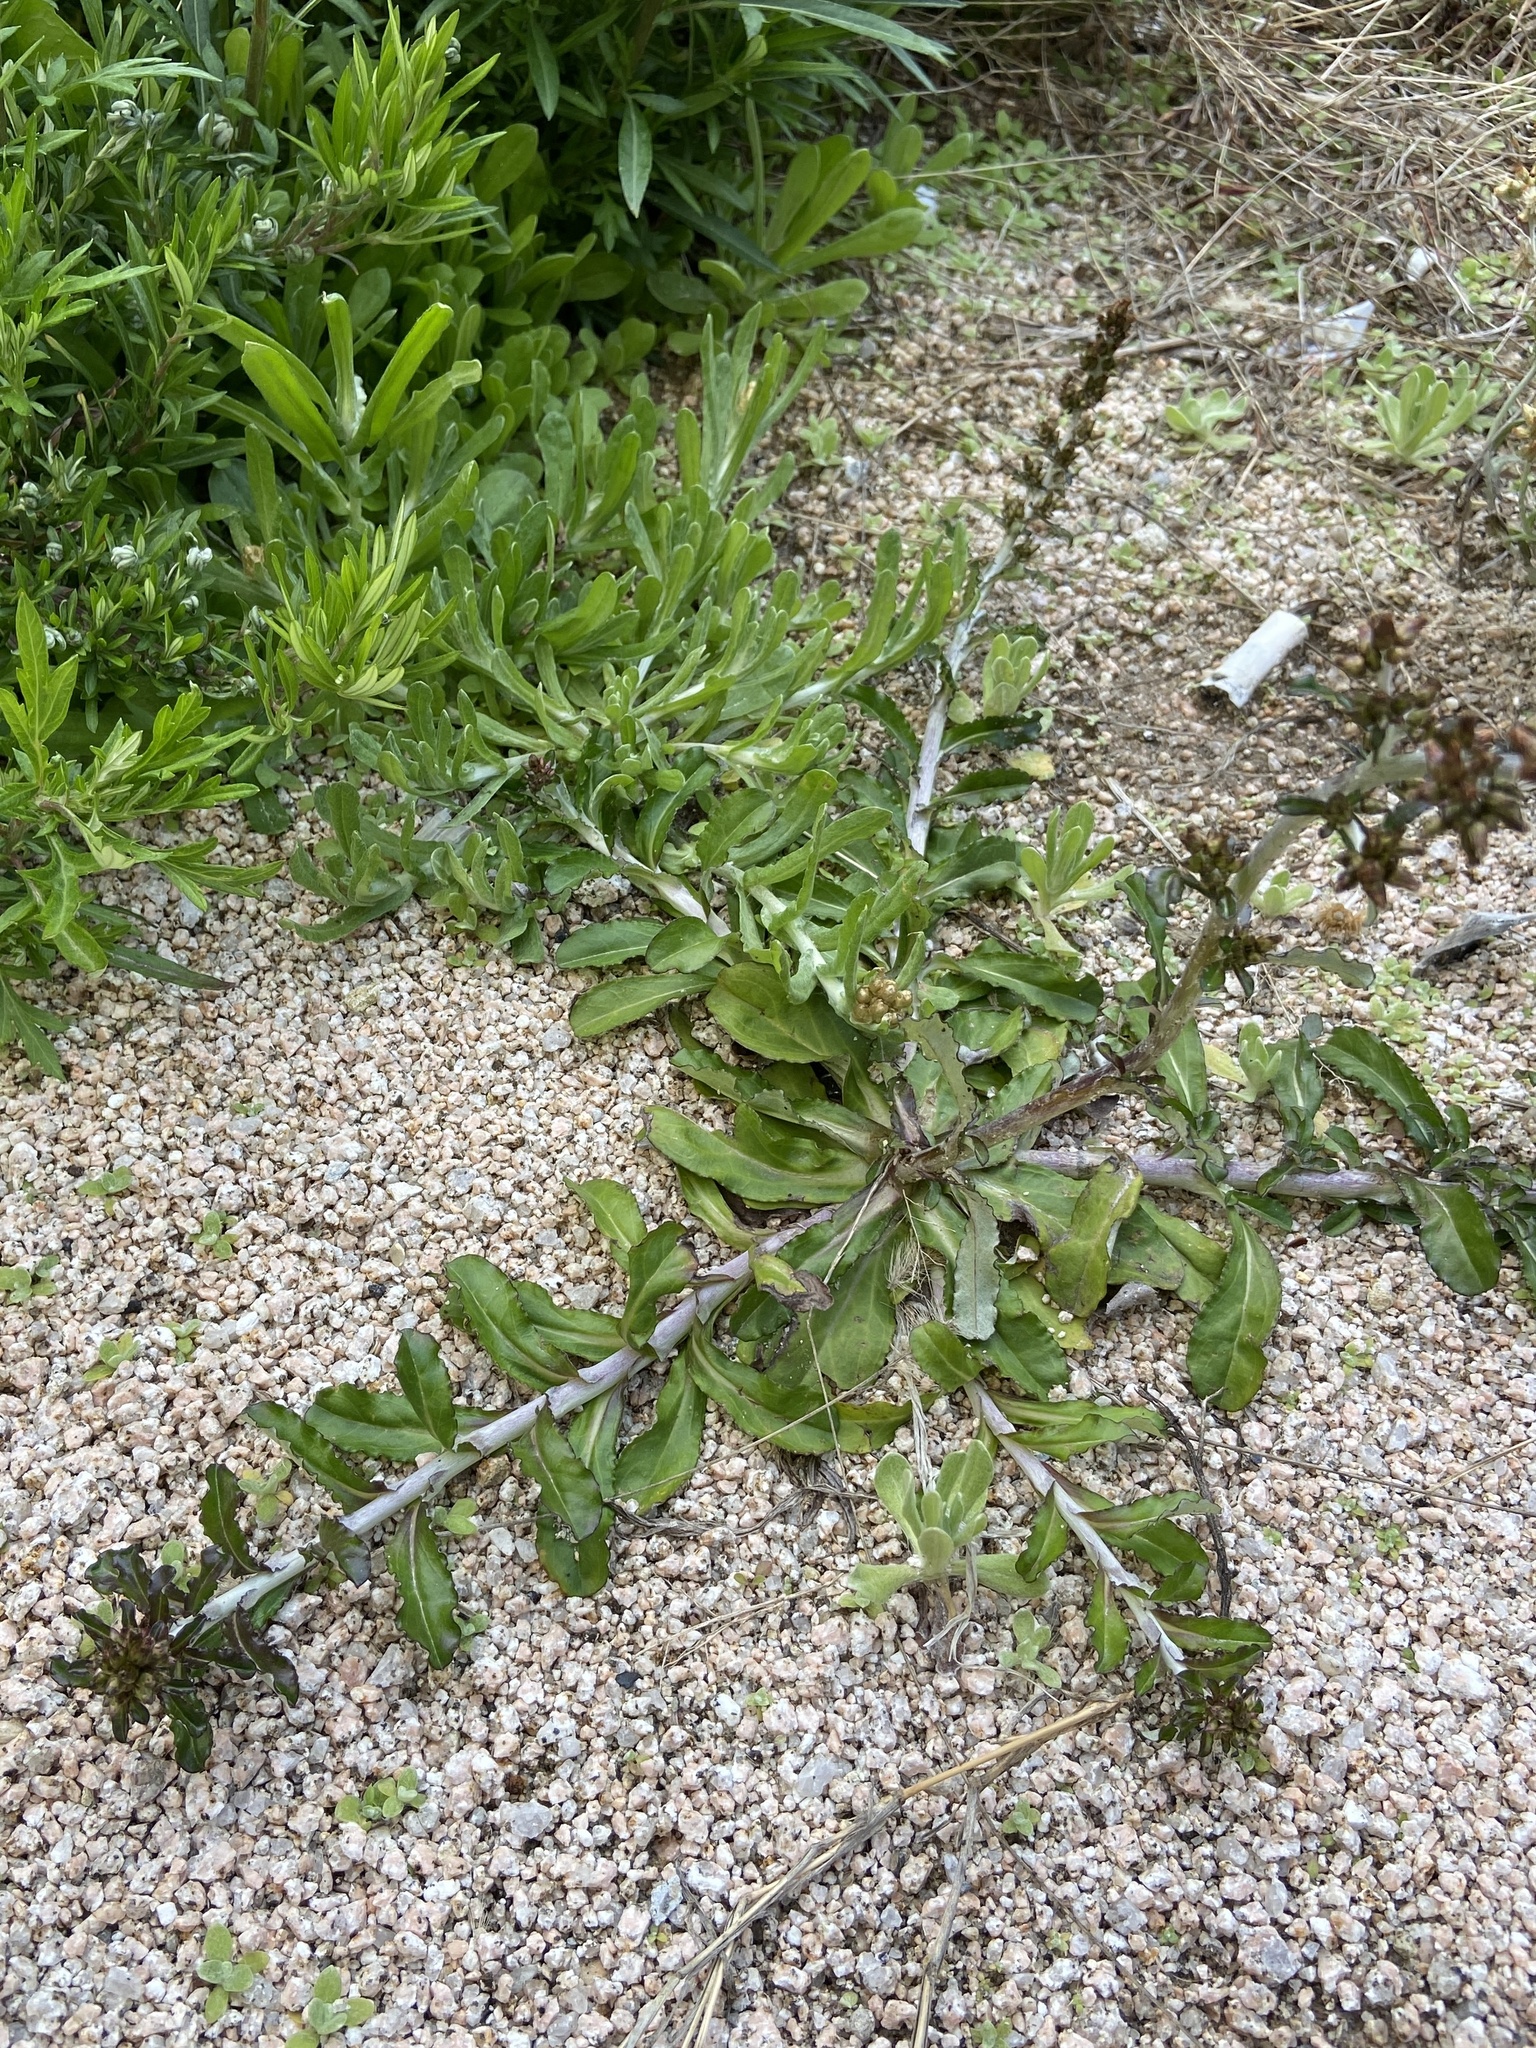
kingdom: Plantae
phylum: Tracheophyta
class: Magnoliopsida
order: Asterales
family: Asteraceae
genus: Gamochaeta
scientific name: Gamochaeta americana
